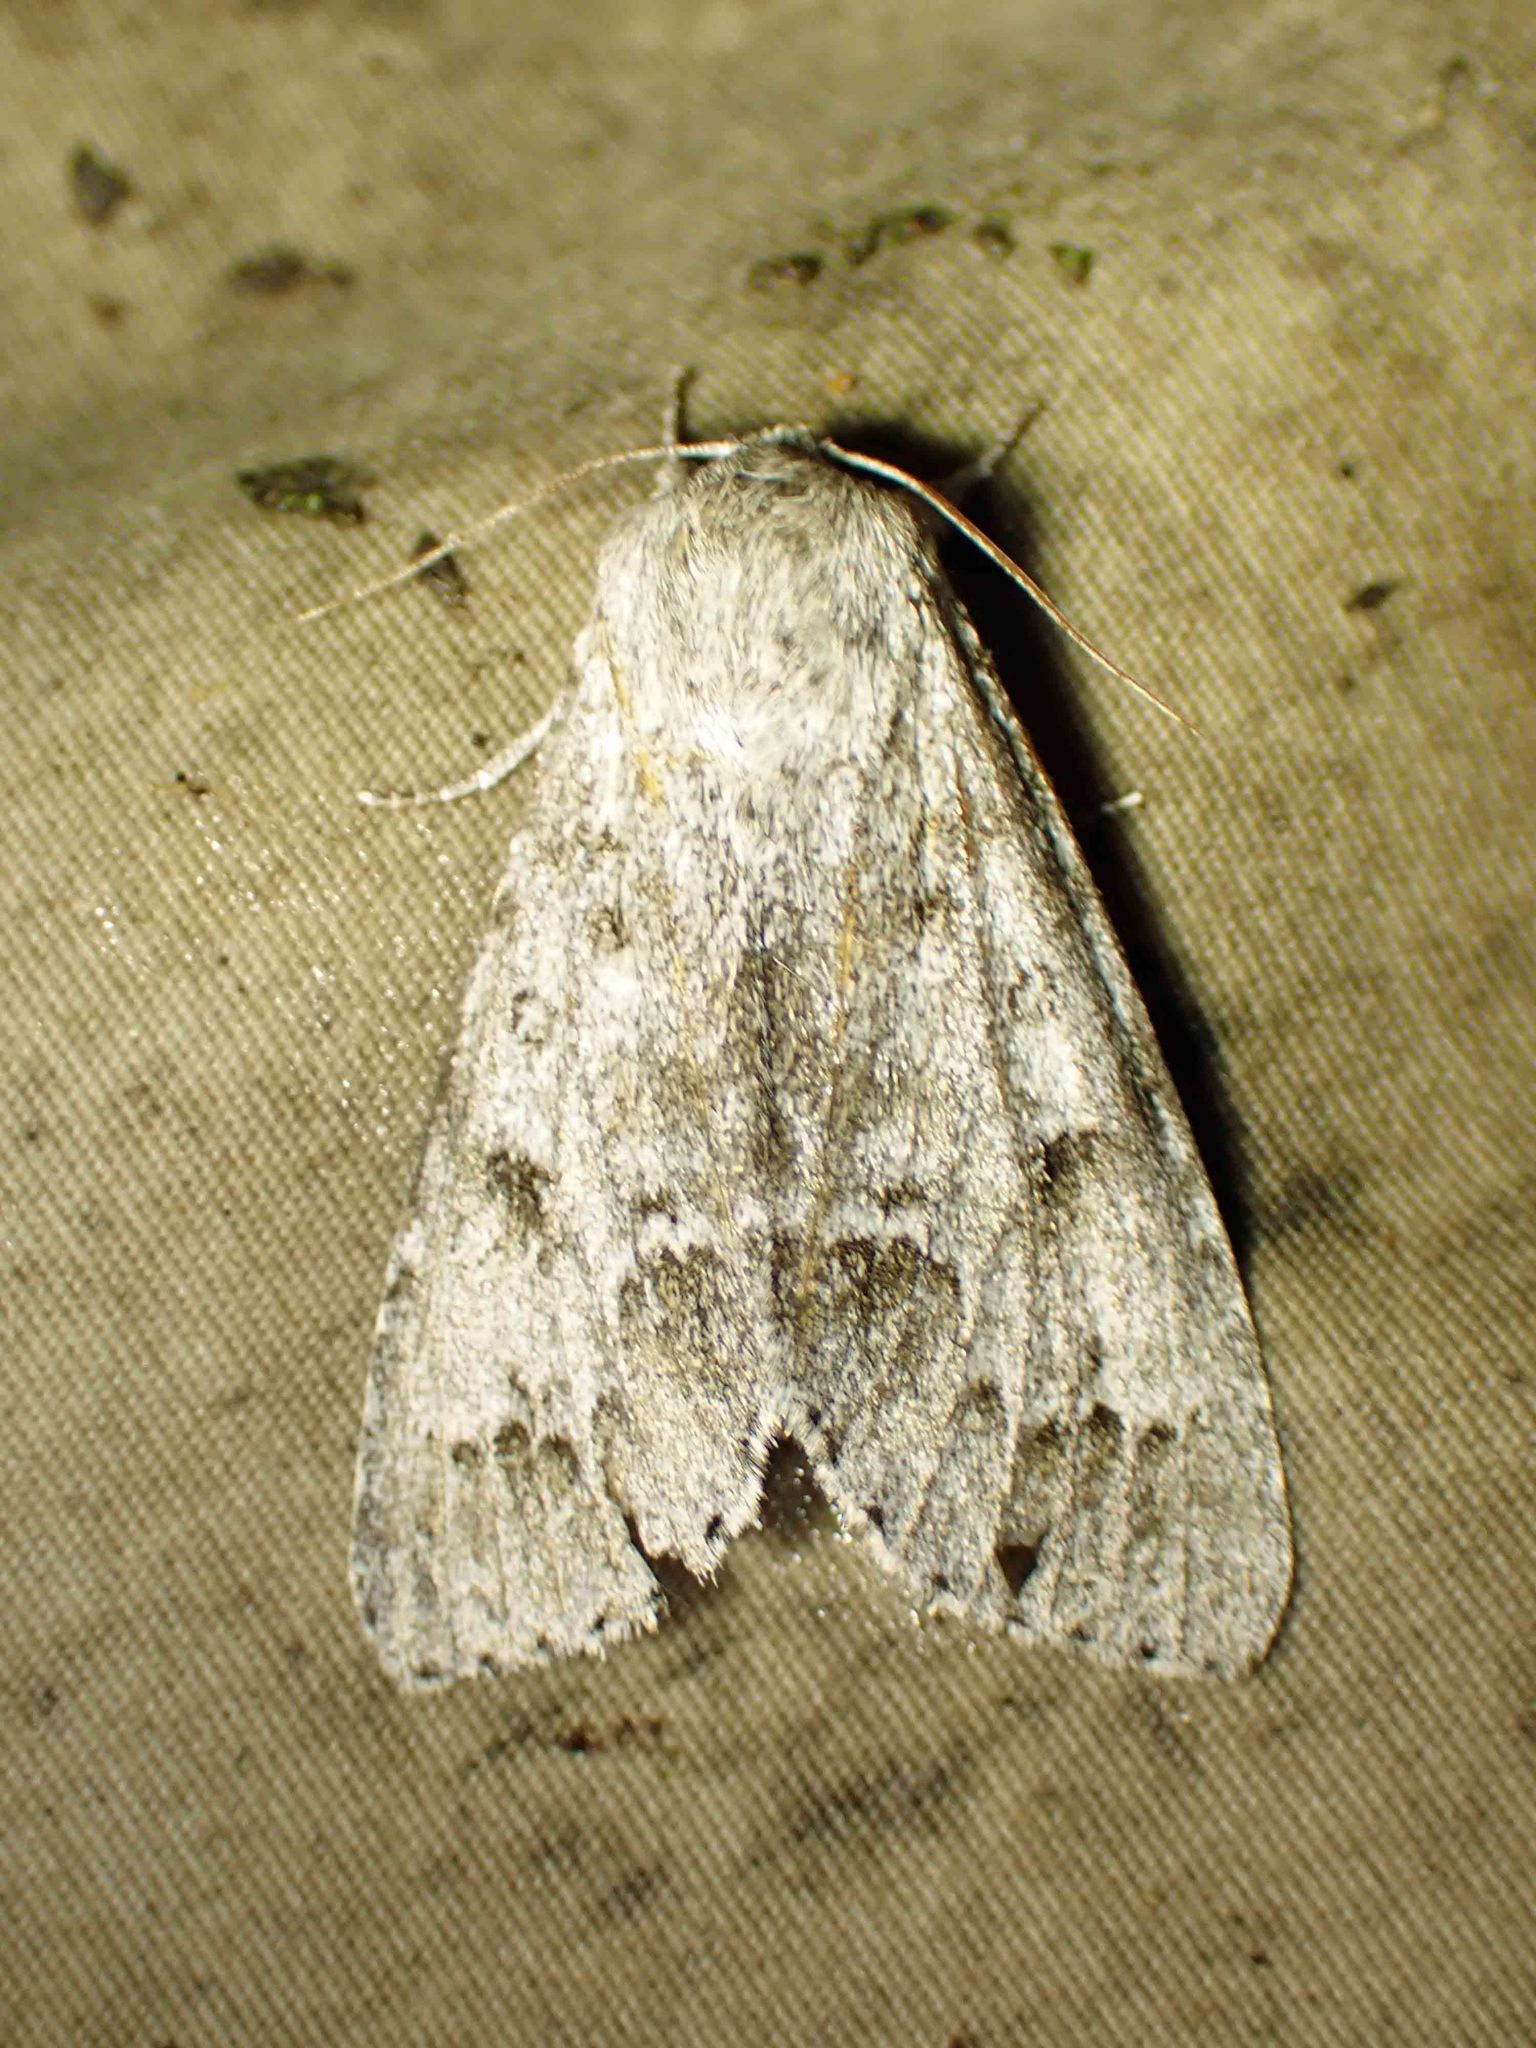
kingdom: Animalia
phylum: Arthropoda
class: Insecta
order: Lepidoptera
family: Noctuidae
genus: Acronicta
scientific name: Acronicta insita
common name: Large gray dagger
